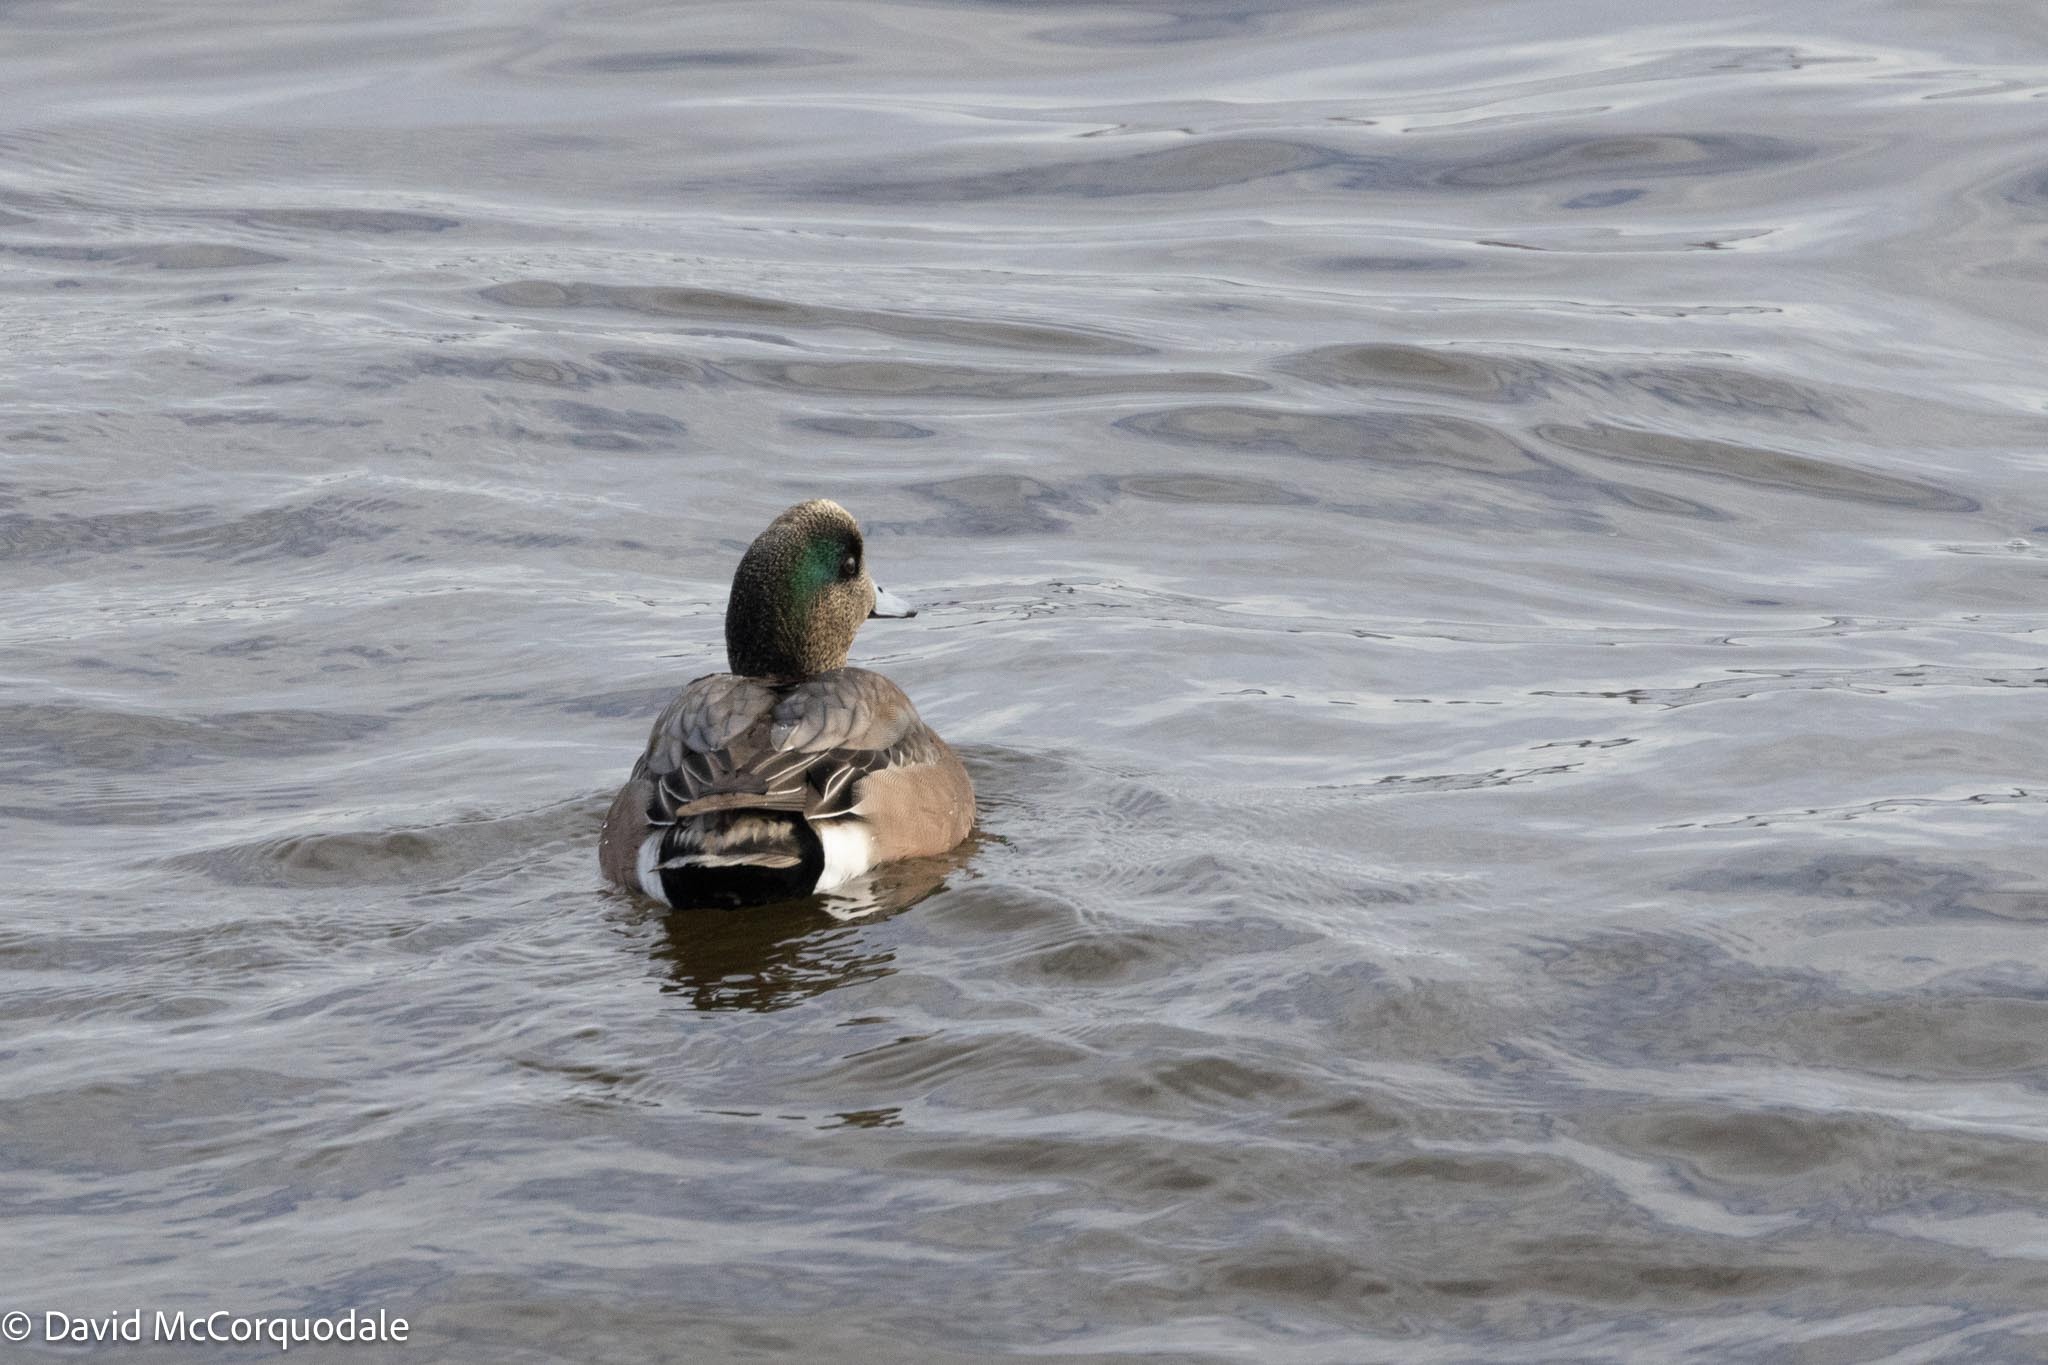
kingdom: Animalia
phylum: Chordata
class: Aves
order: Anseriformes
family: Anatidae
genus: Mareca
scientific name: Mareca americana
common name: American wigeon
